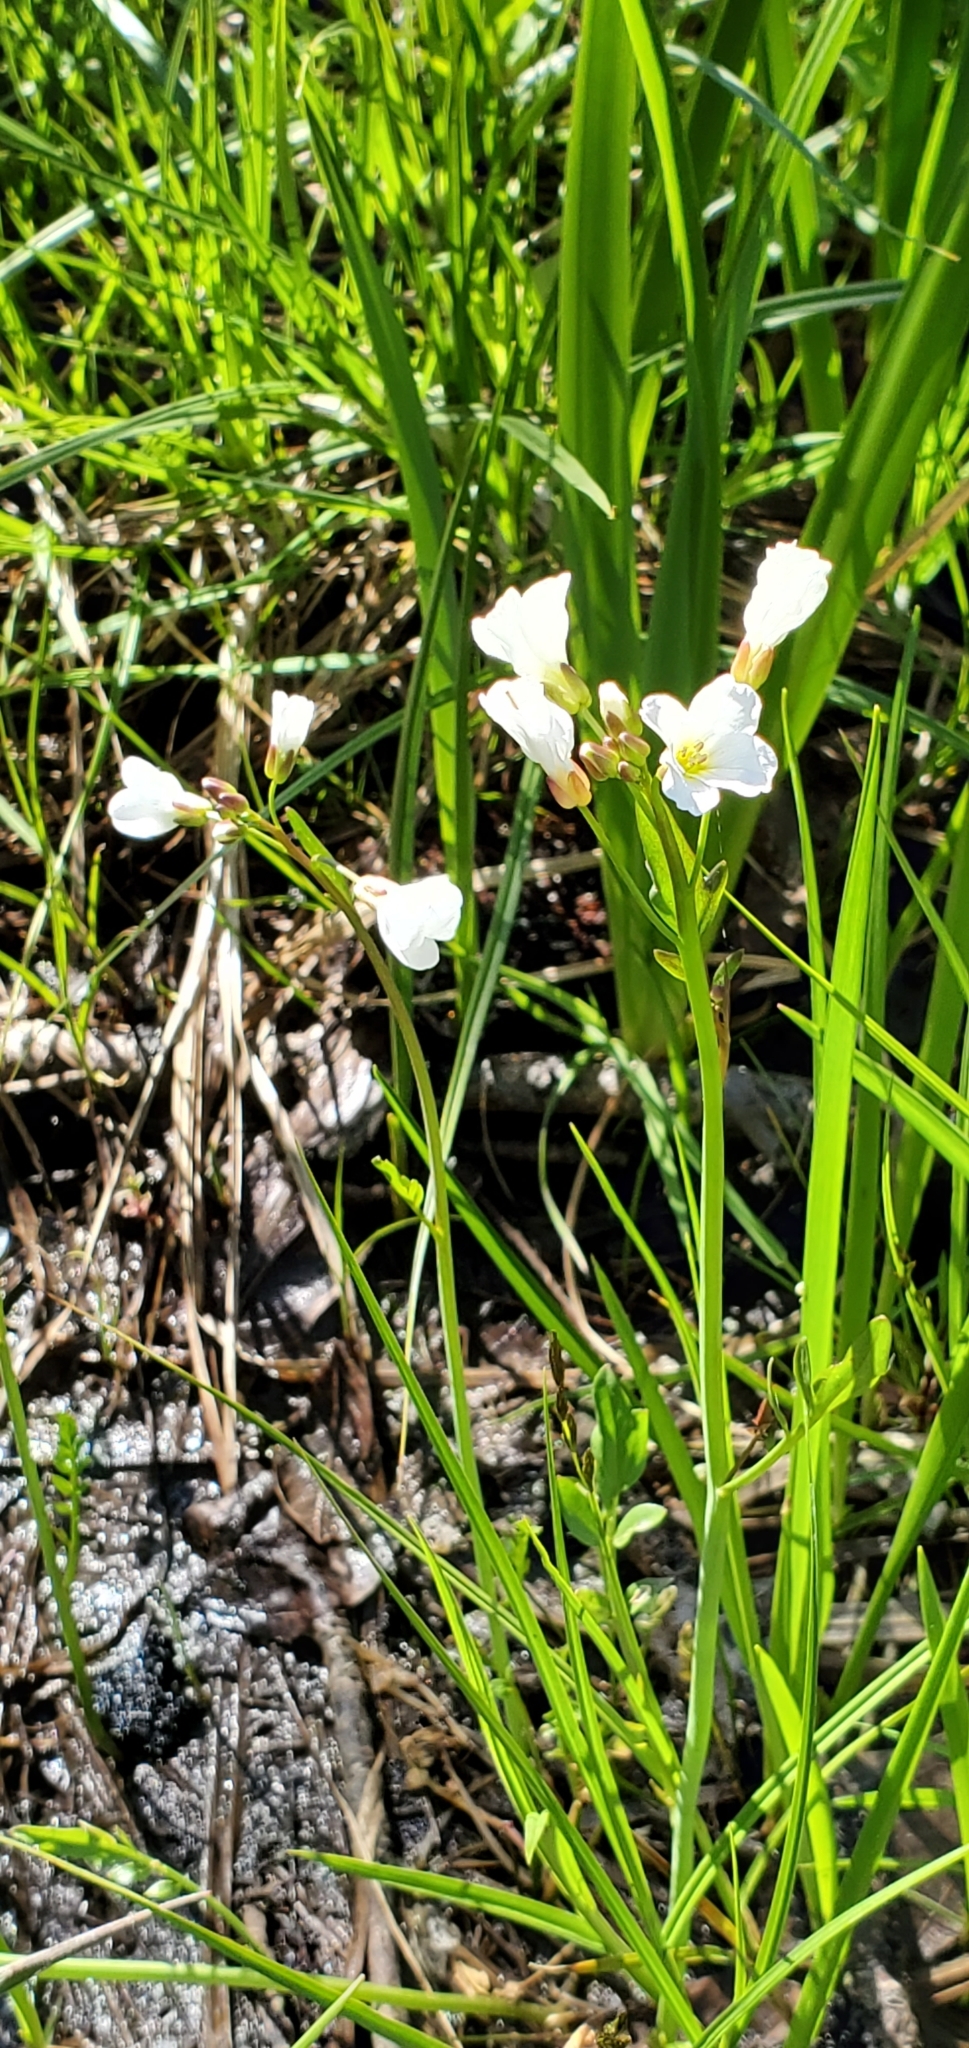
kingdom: Plantae
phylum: Tracheophyta
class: Magnoliopsida
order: Brassicales
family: Brassicaceae
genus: Cardamine
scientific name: Cardamine penduliflora
